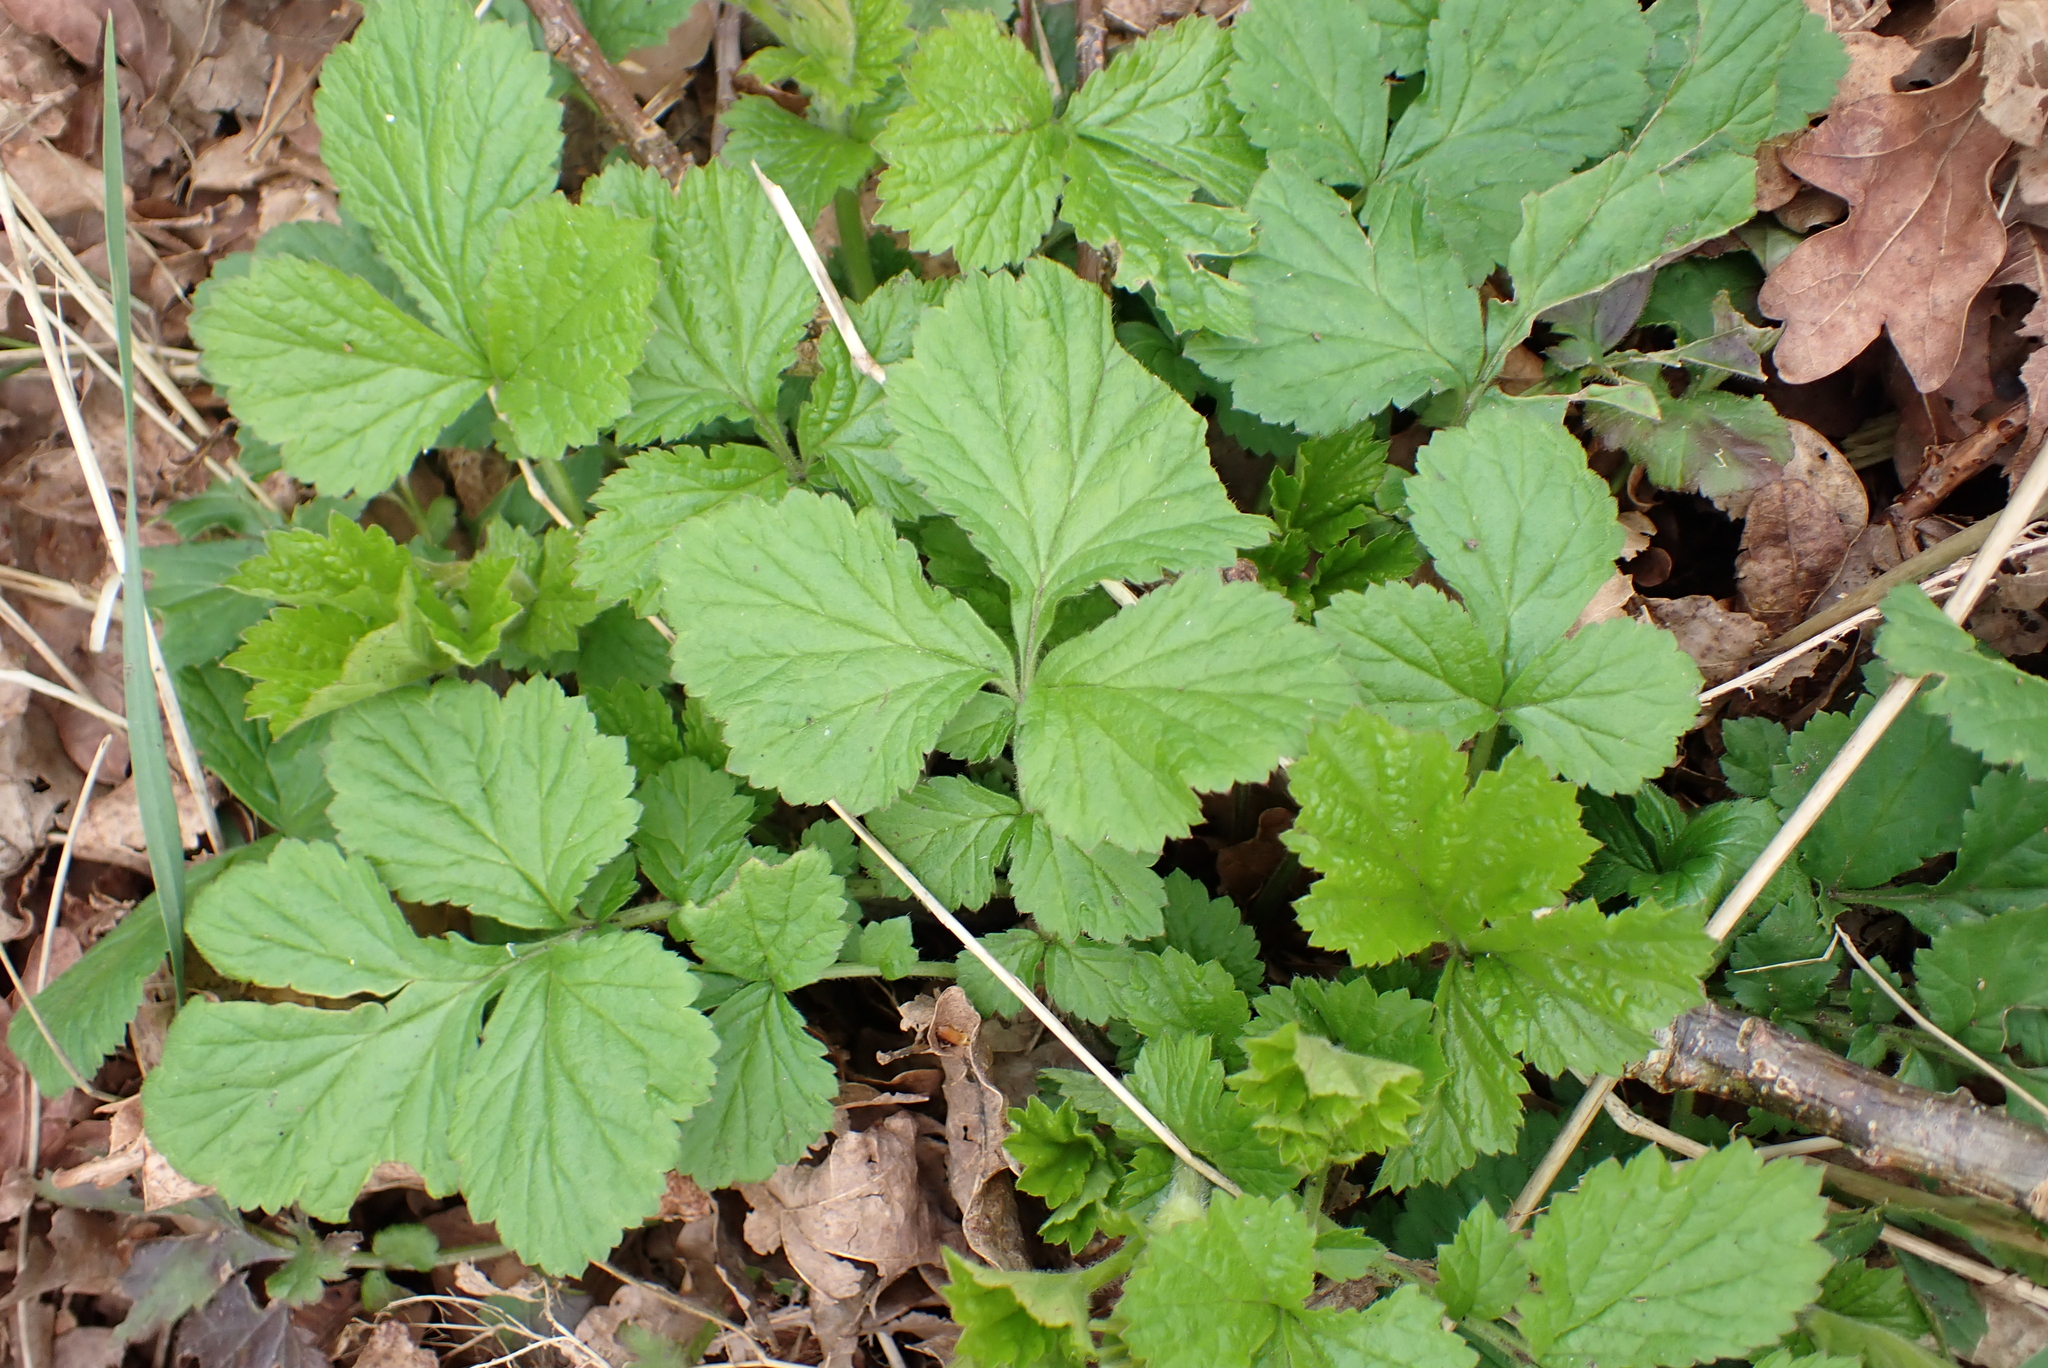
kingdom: Plantae
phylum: Tracheophyta
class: Magnoliopsida
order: Rosales
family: Rosaceae
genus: Geum
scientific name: Geum urbanum
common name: Wood avens
